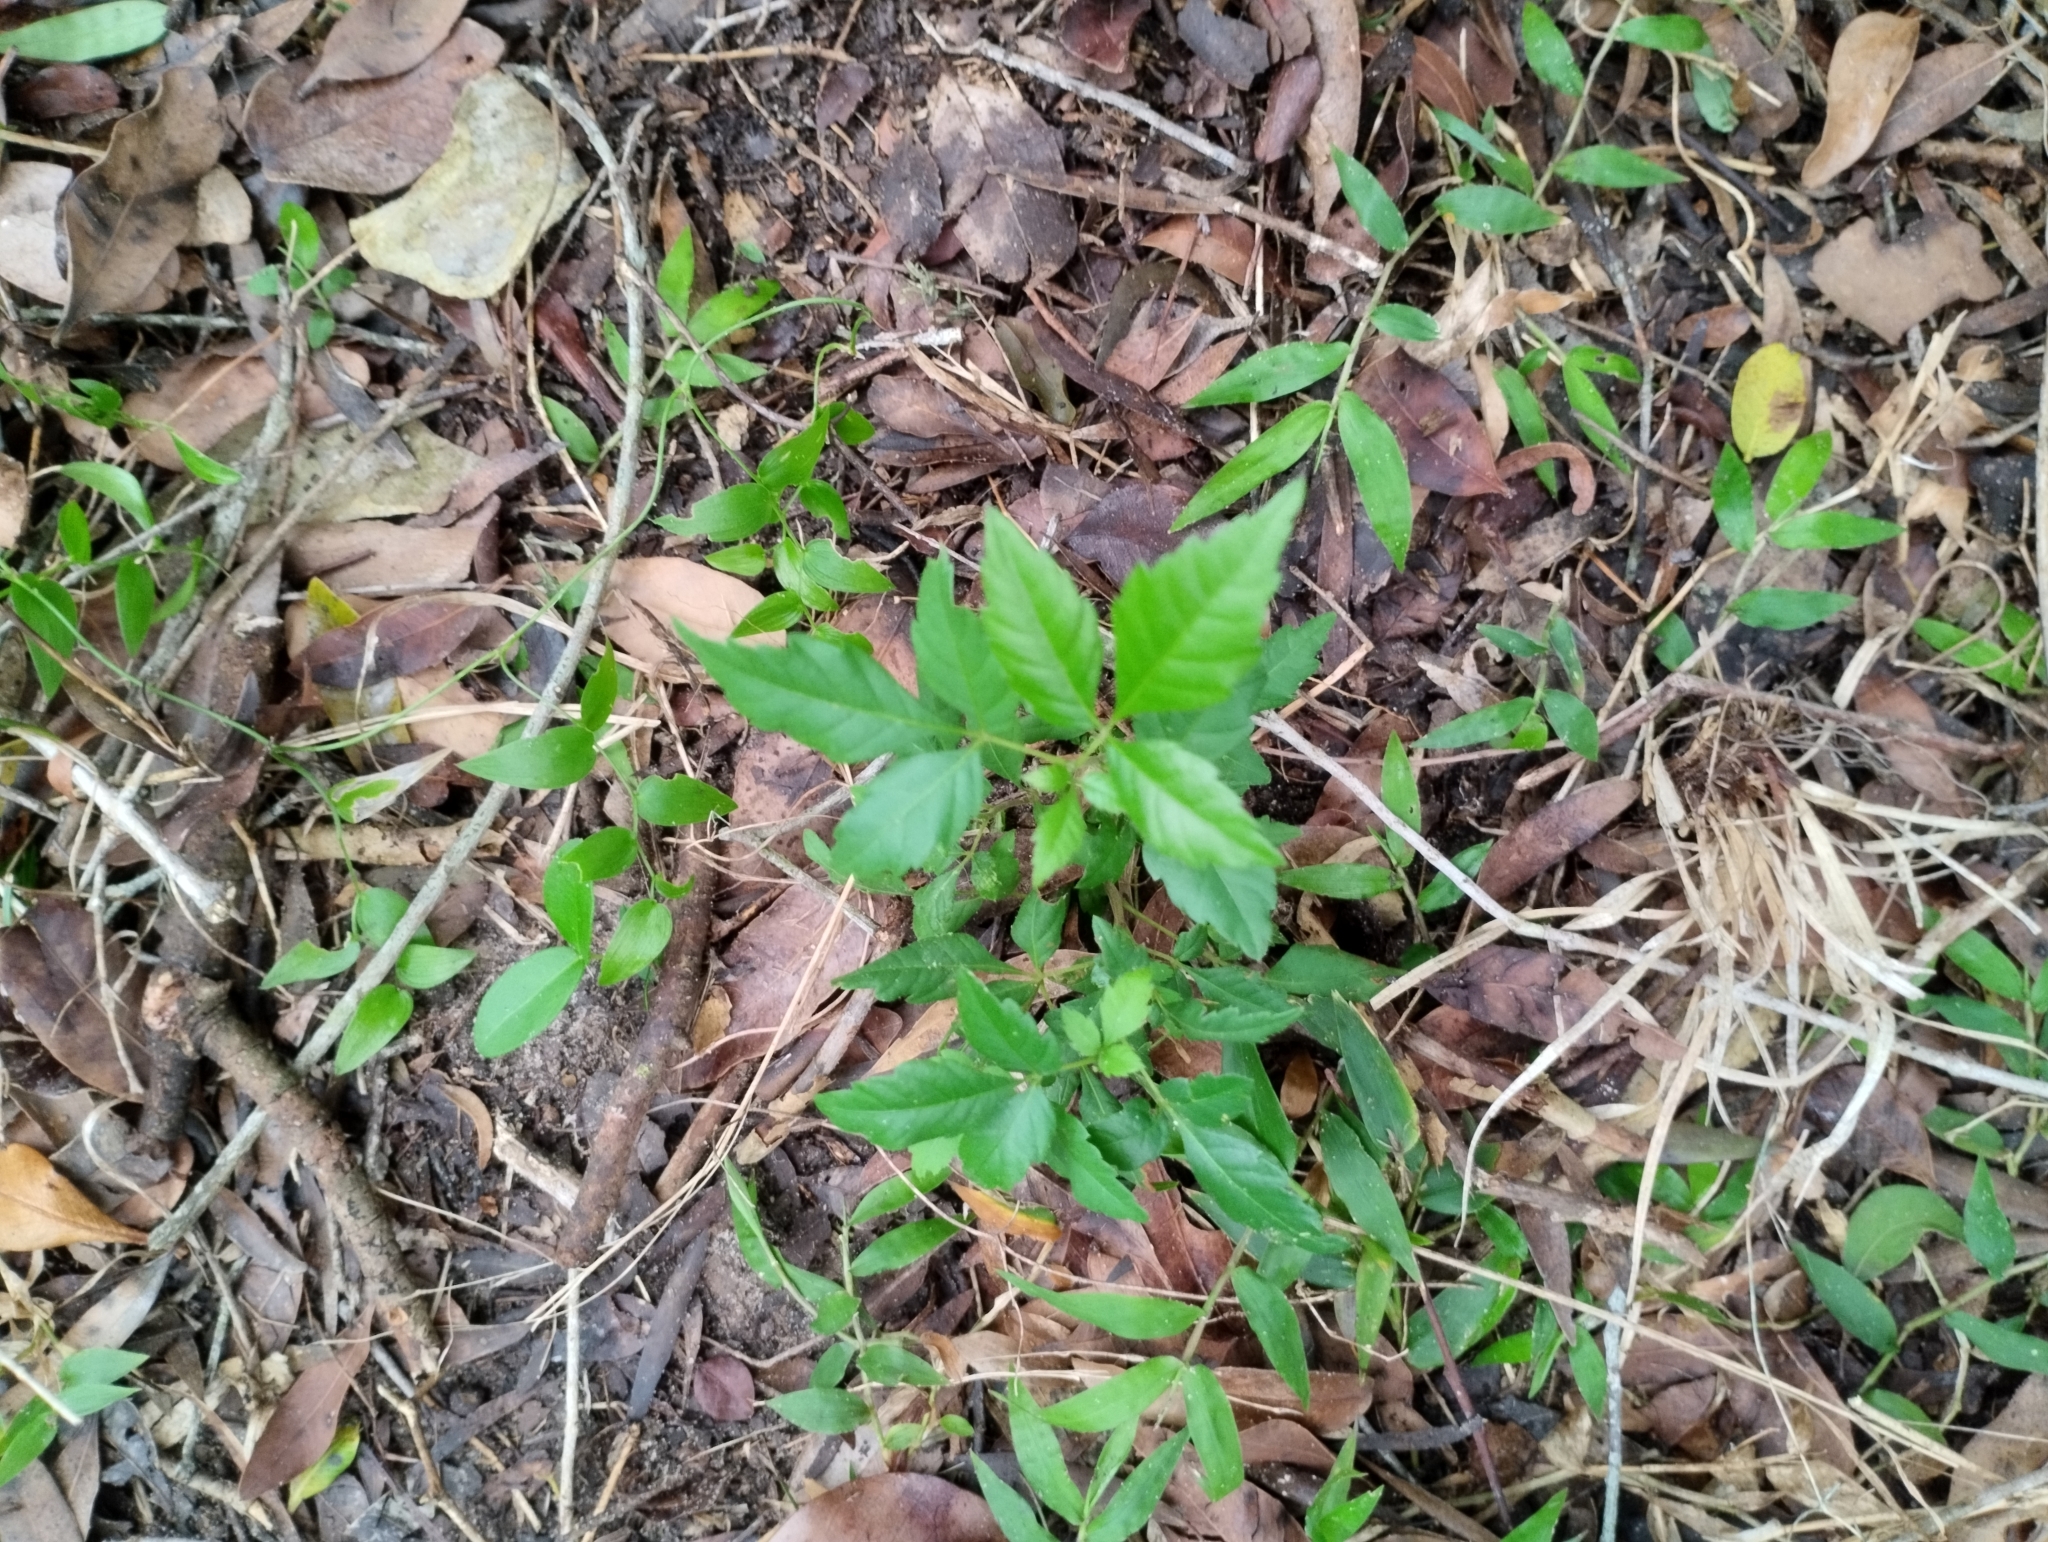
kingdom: Plantae
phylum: Tracheophyta
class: Magnoliopsida
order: Sapindales
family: Sapindaceae
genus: Allophylus
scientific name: Allophylus edulis
